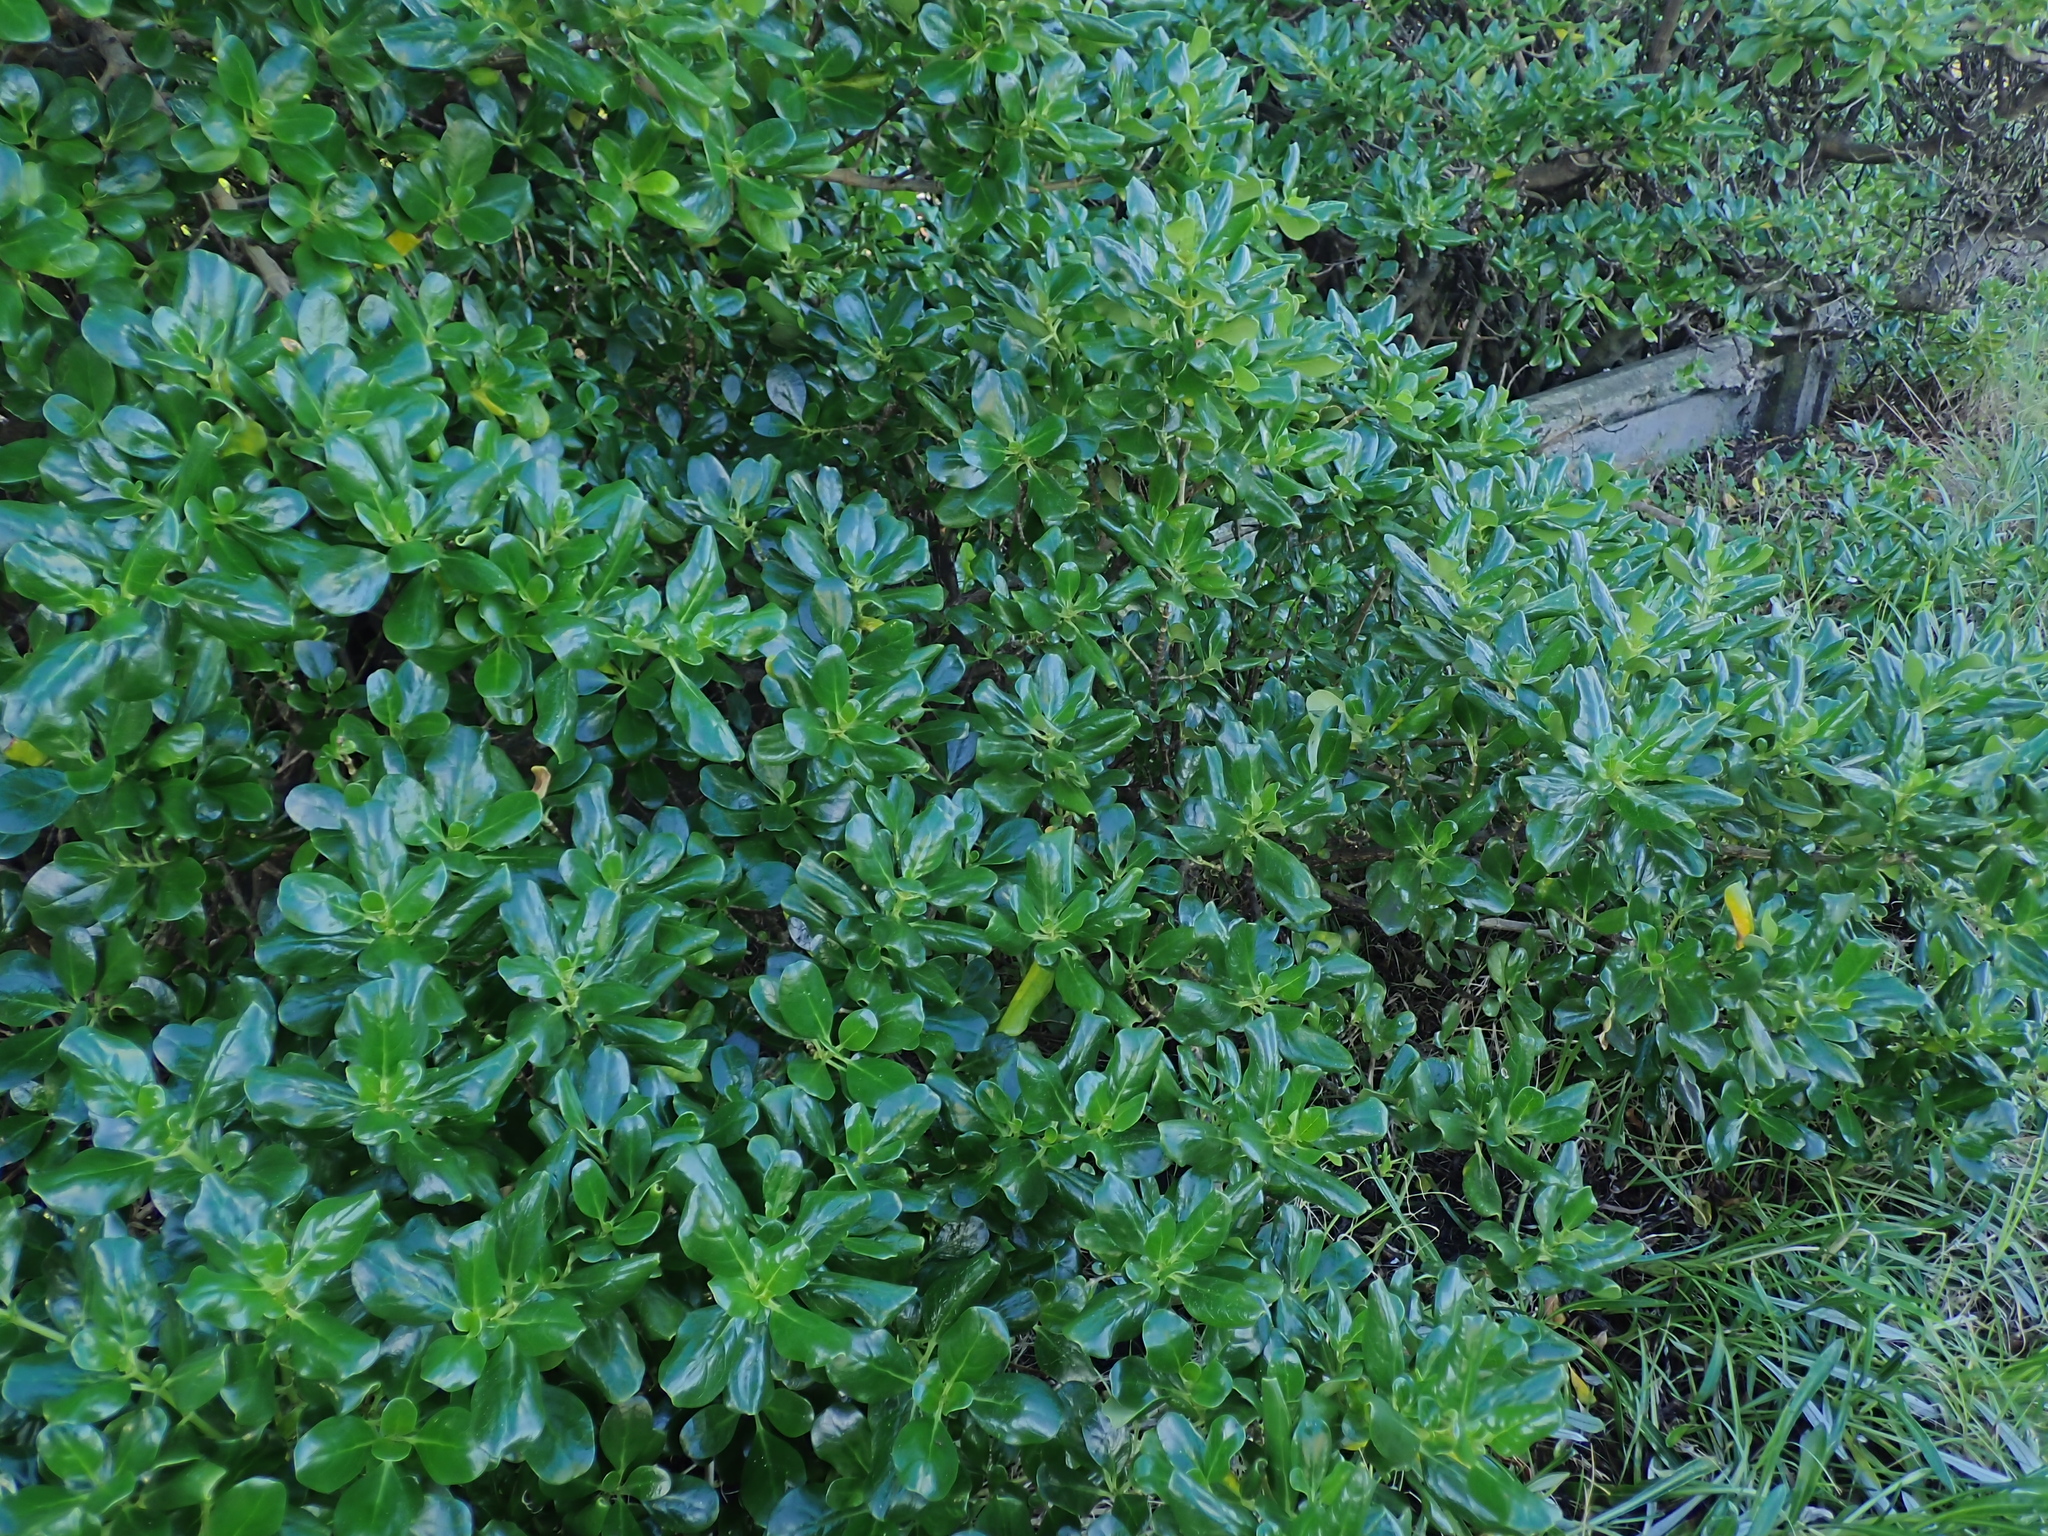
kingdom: Plantae
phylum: Tracheophyta
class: Magnoliopsida
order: Gentianales
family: Rubiaceae
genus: Coprosma
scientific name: Coprosma repens
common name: Tree bedstraw
